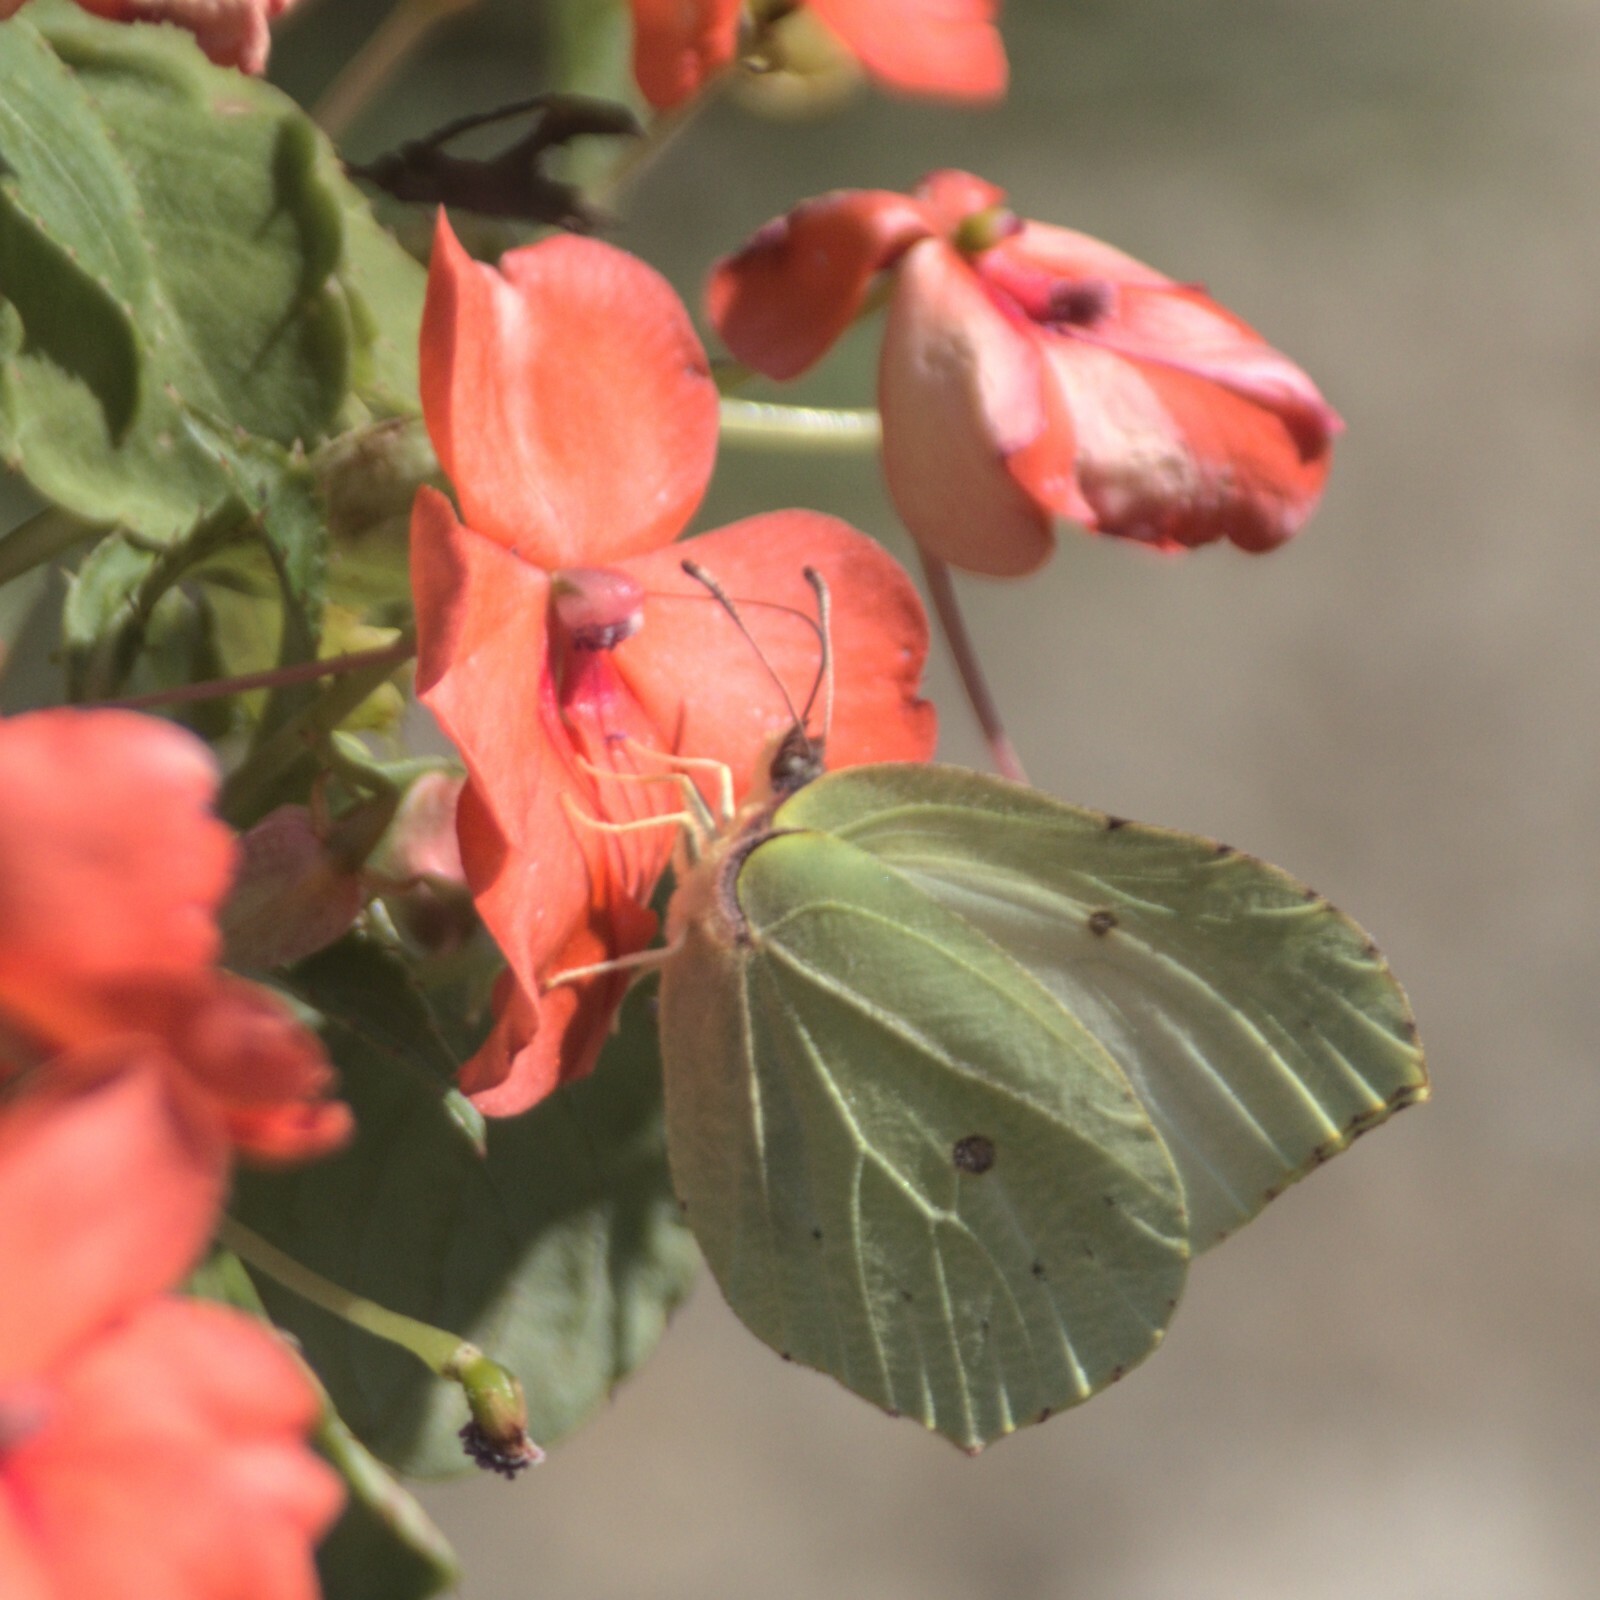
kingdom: Animalia
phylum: Arthropoda
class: Insecta
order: Lepidoptera
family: Pieridae
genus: Gonepteryx
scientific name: Gonepteryx rhamni
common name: Brimstone
